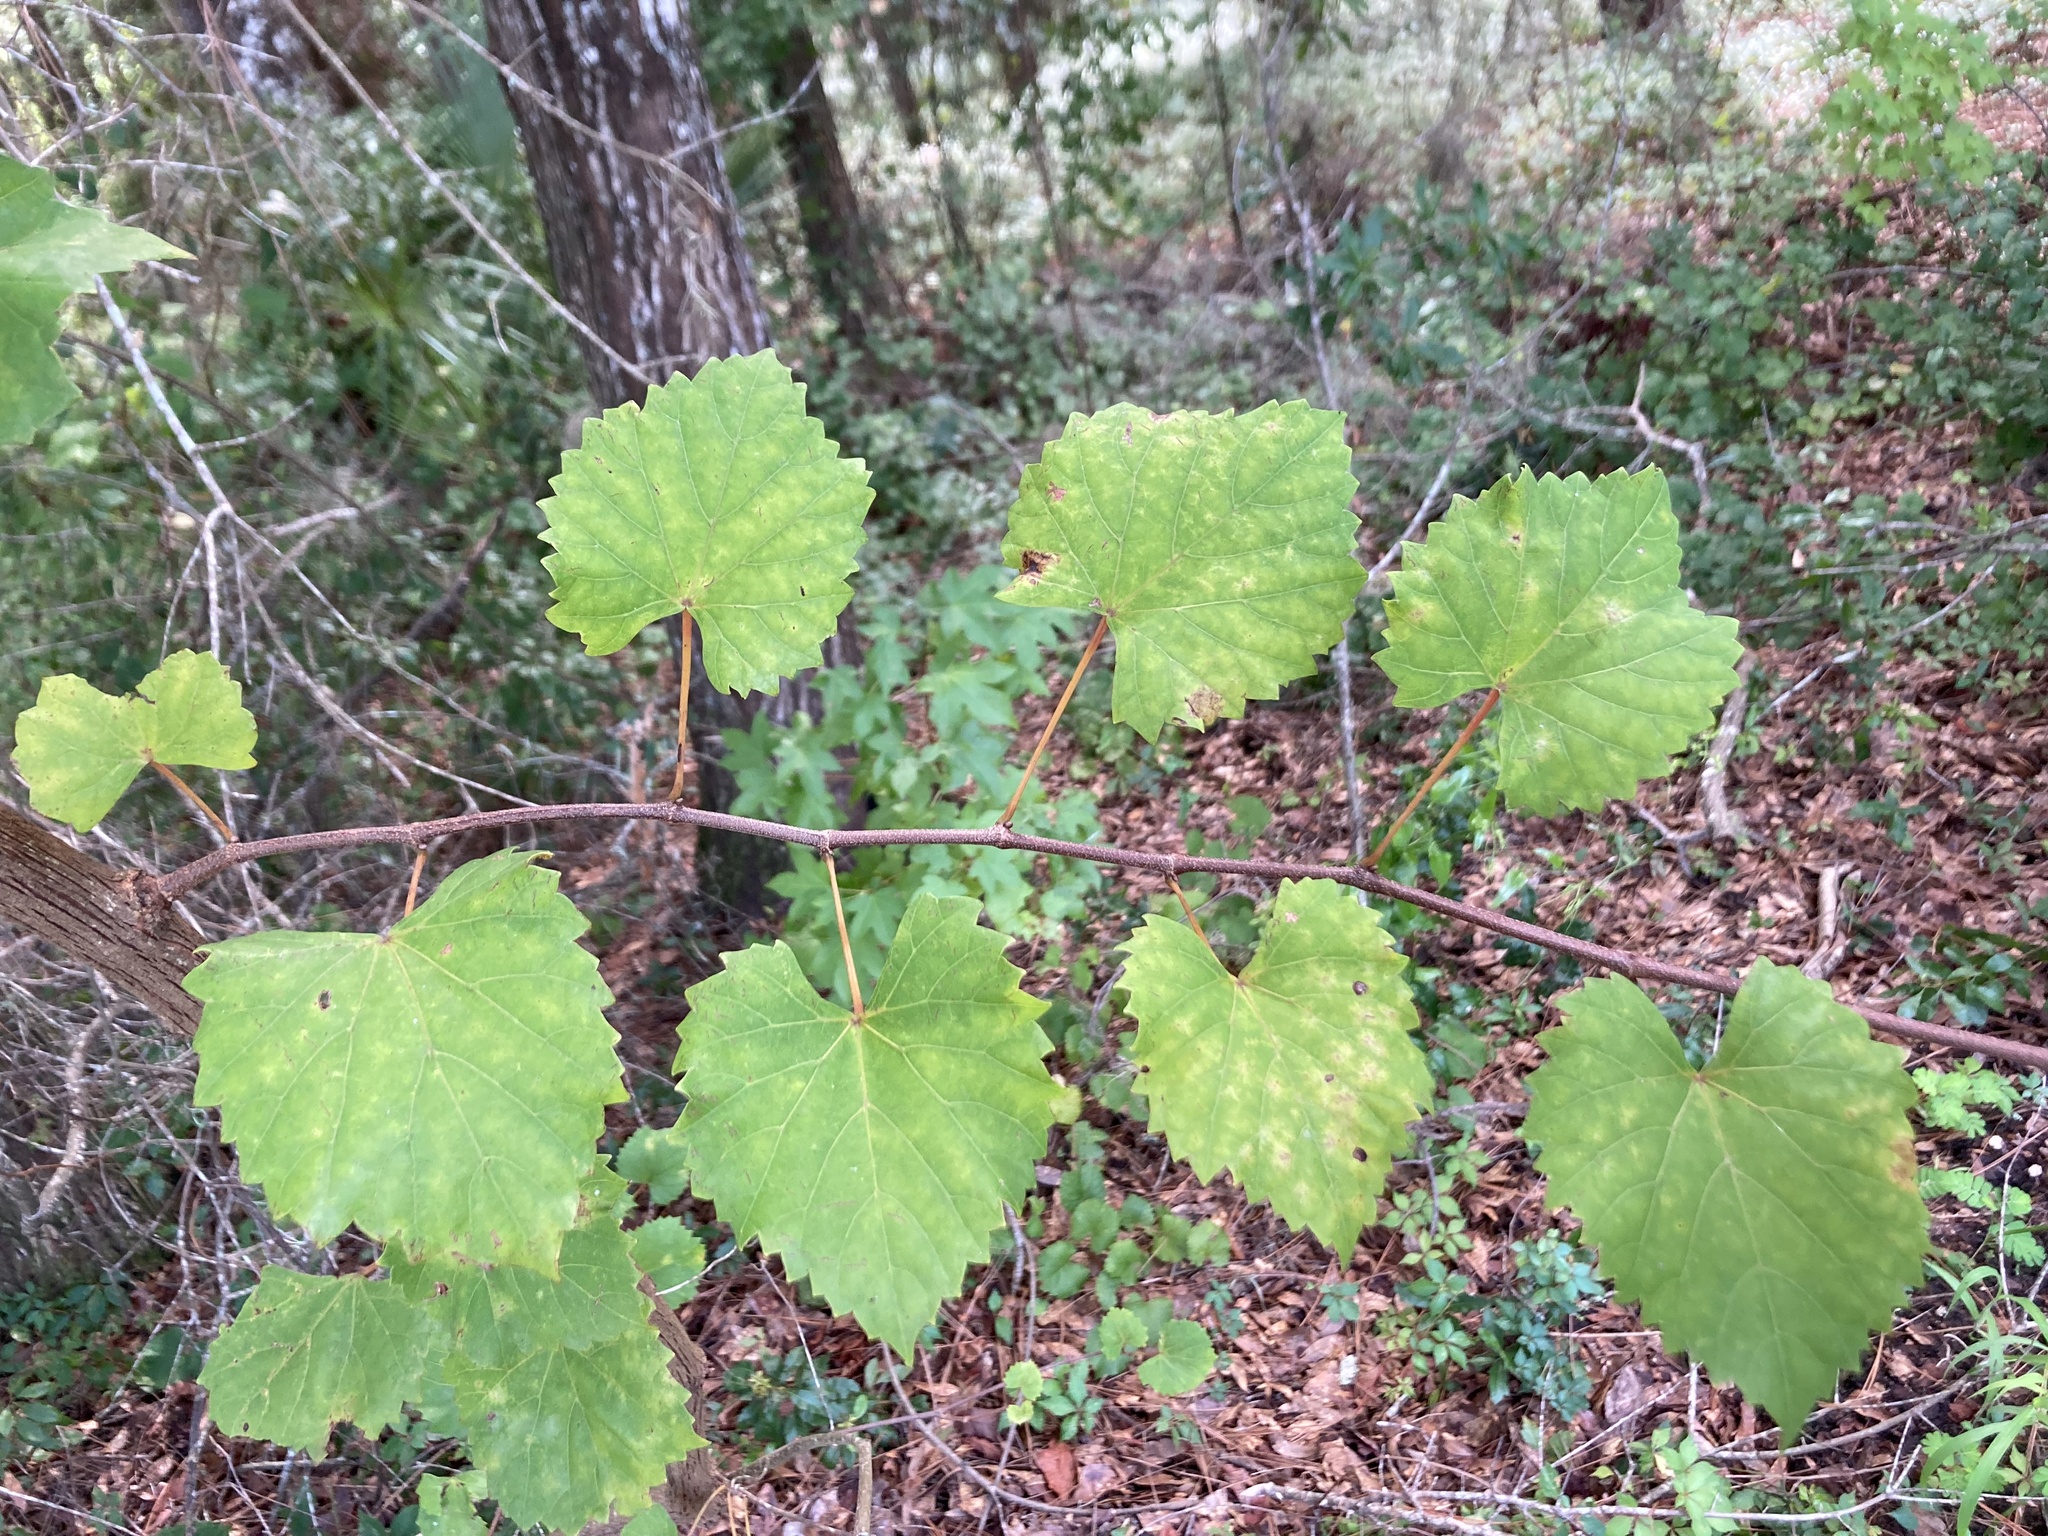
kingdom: Plantae
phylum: Tracheophyta
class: Magnoliopsida
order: Vitales
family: Vitaceae
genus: Vitis
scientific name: Vitis rotundifolia
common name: Muscadine grape
